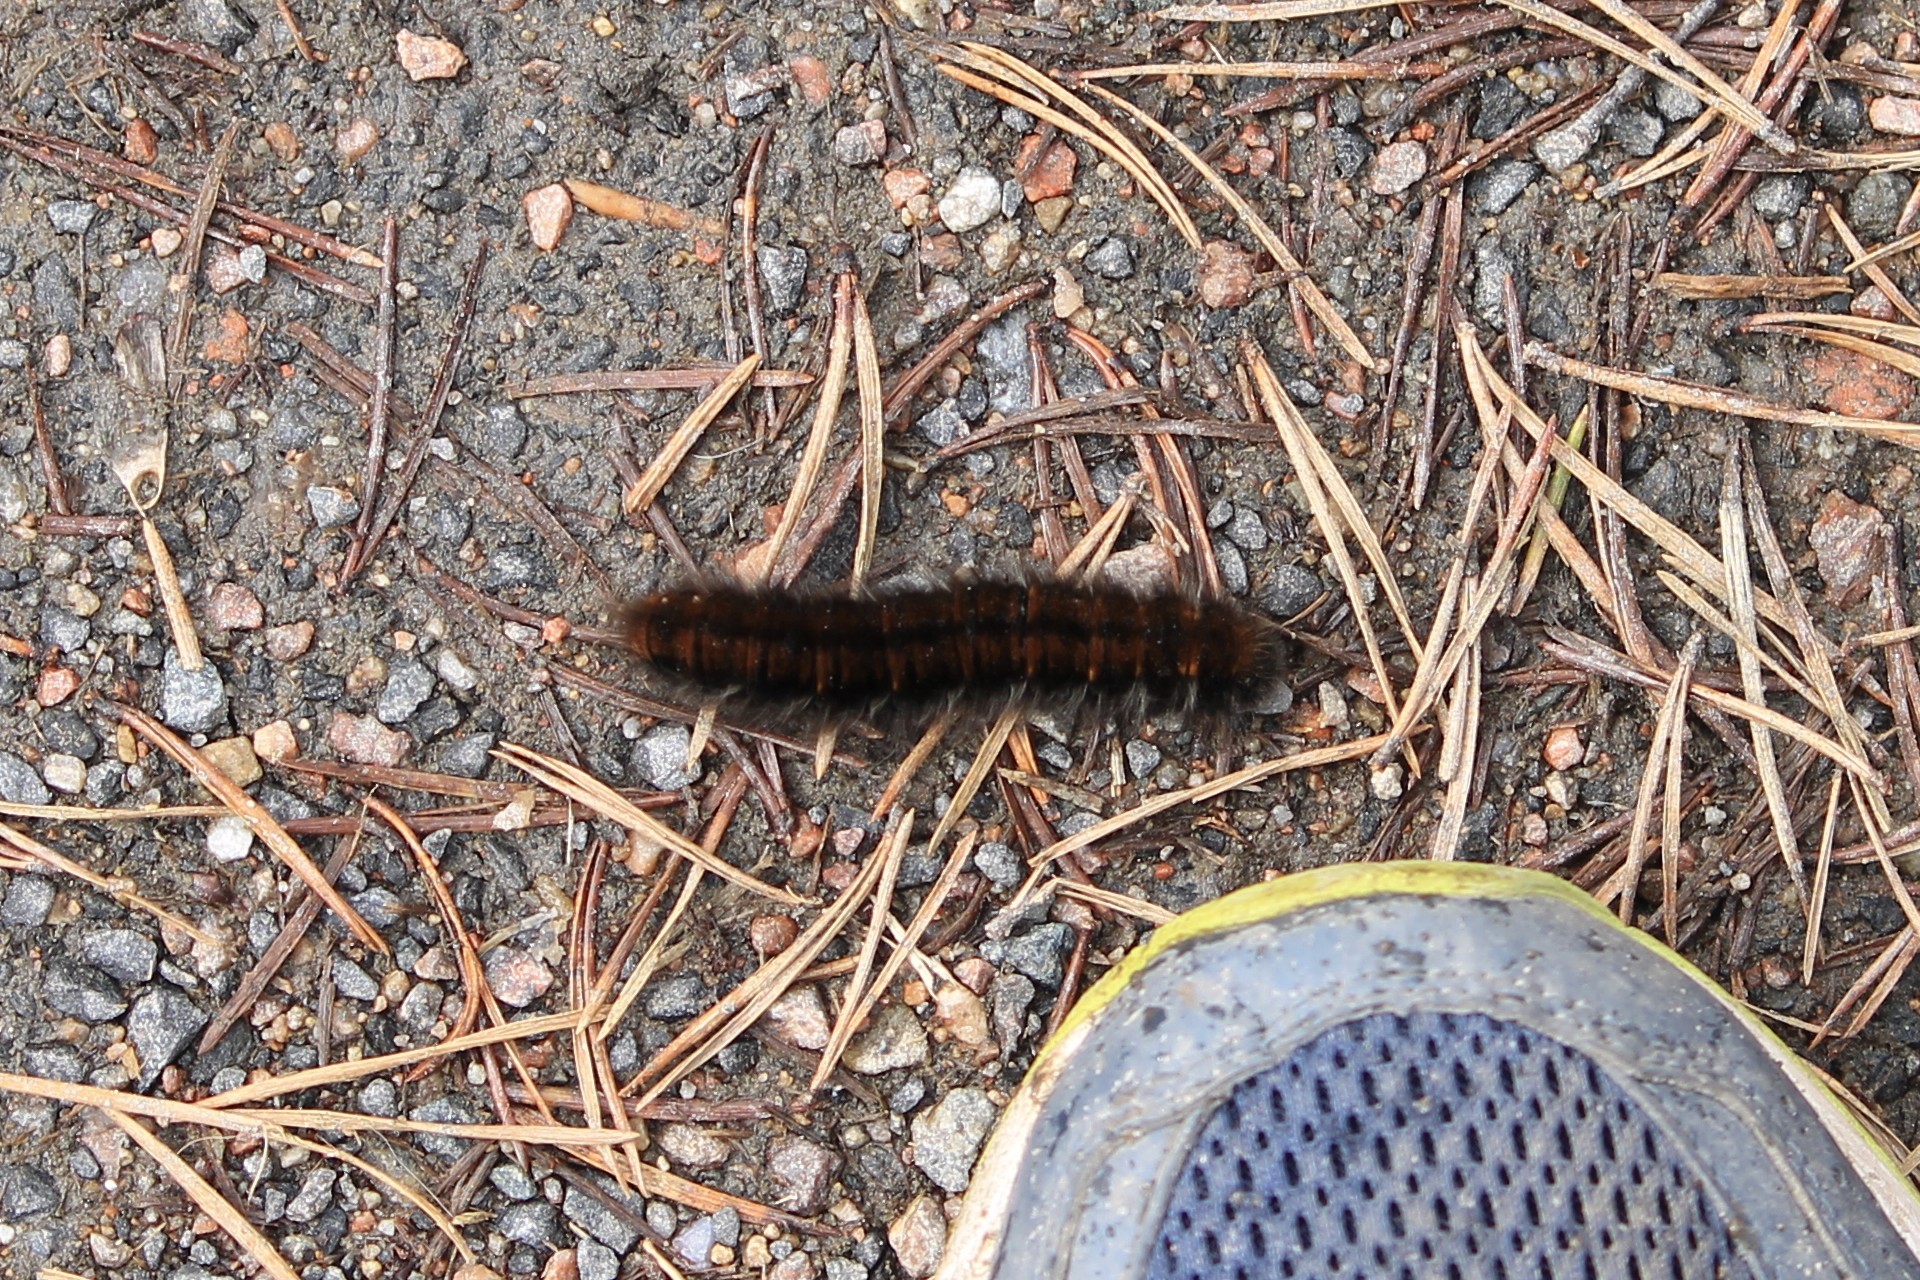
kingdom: Animalia
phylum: Arthropoda
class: Insecta
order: Lepidoptera
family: Lasiocampidae
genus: Macrothylacia
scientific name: Macrothylacia rubi
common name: Fox moth
